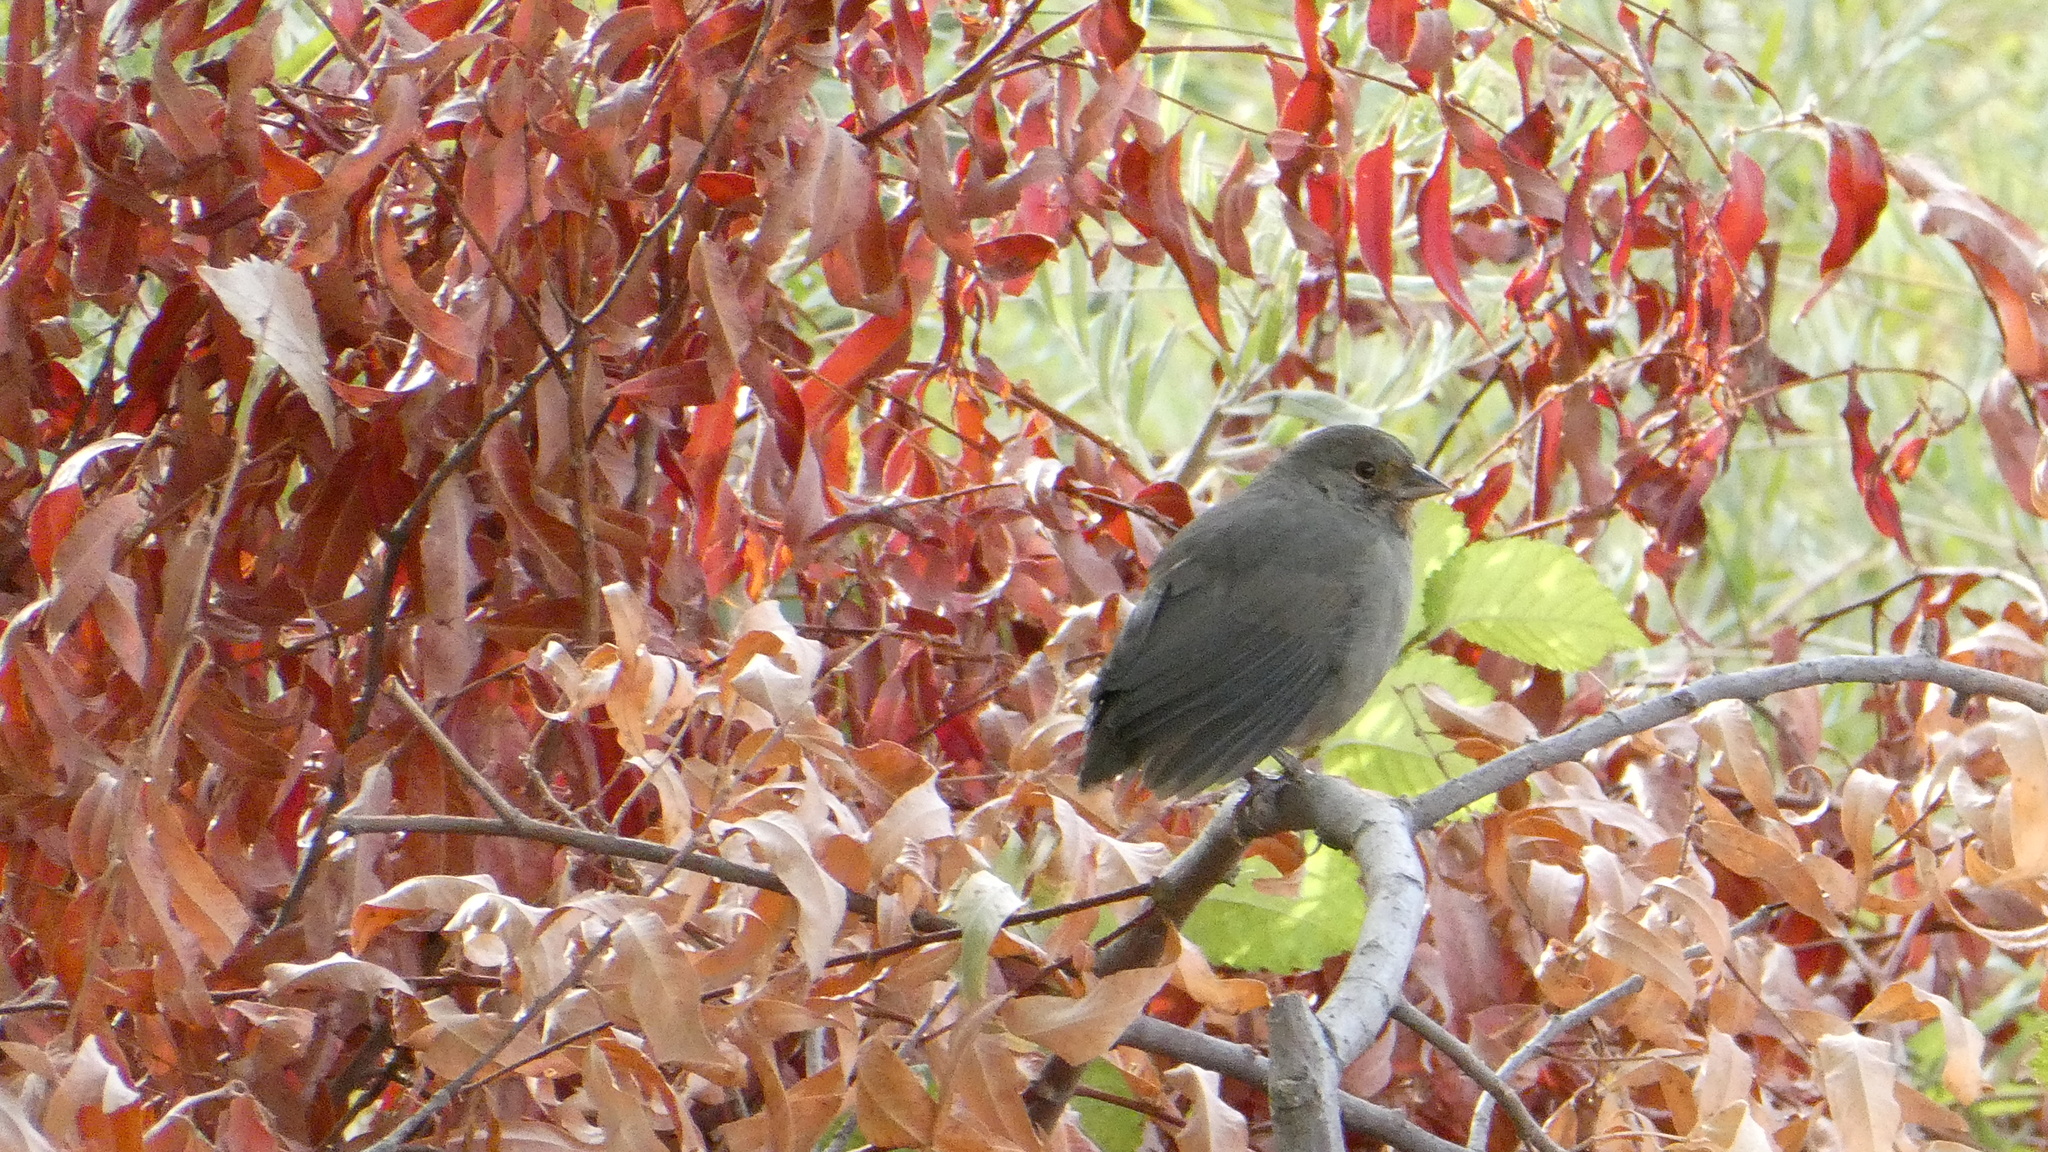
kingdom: Animalia
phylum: Chordata
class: Aves
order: Passeriformes
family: Passerellidae
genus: Melozone
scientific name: Melozone crissalis
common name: California towhee
